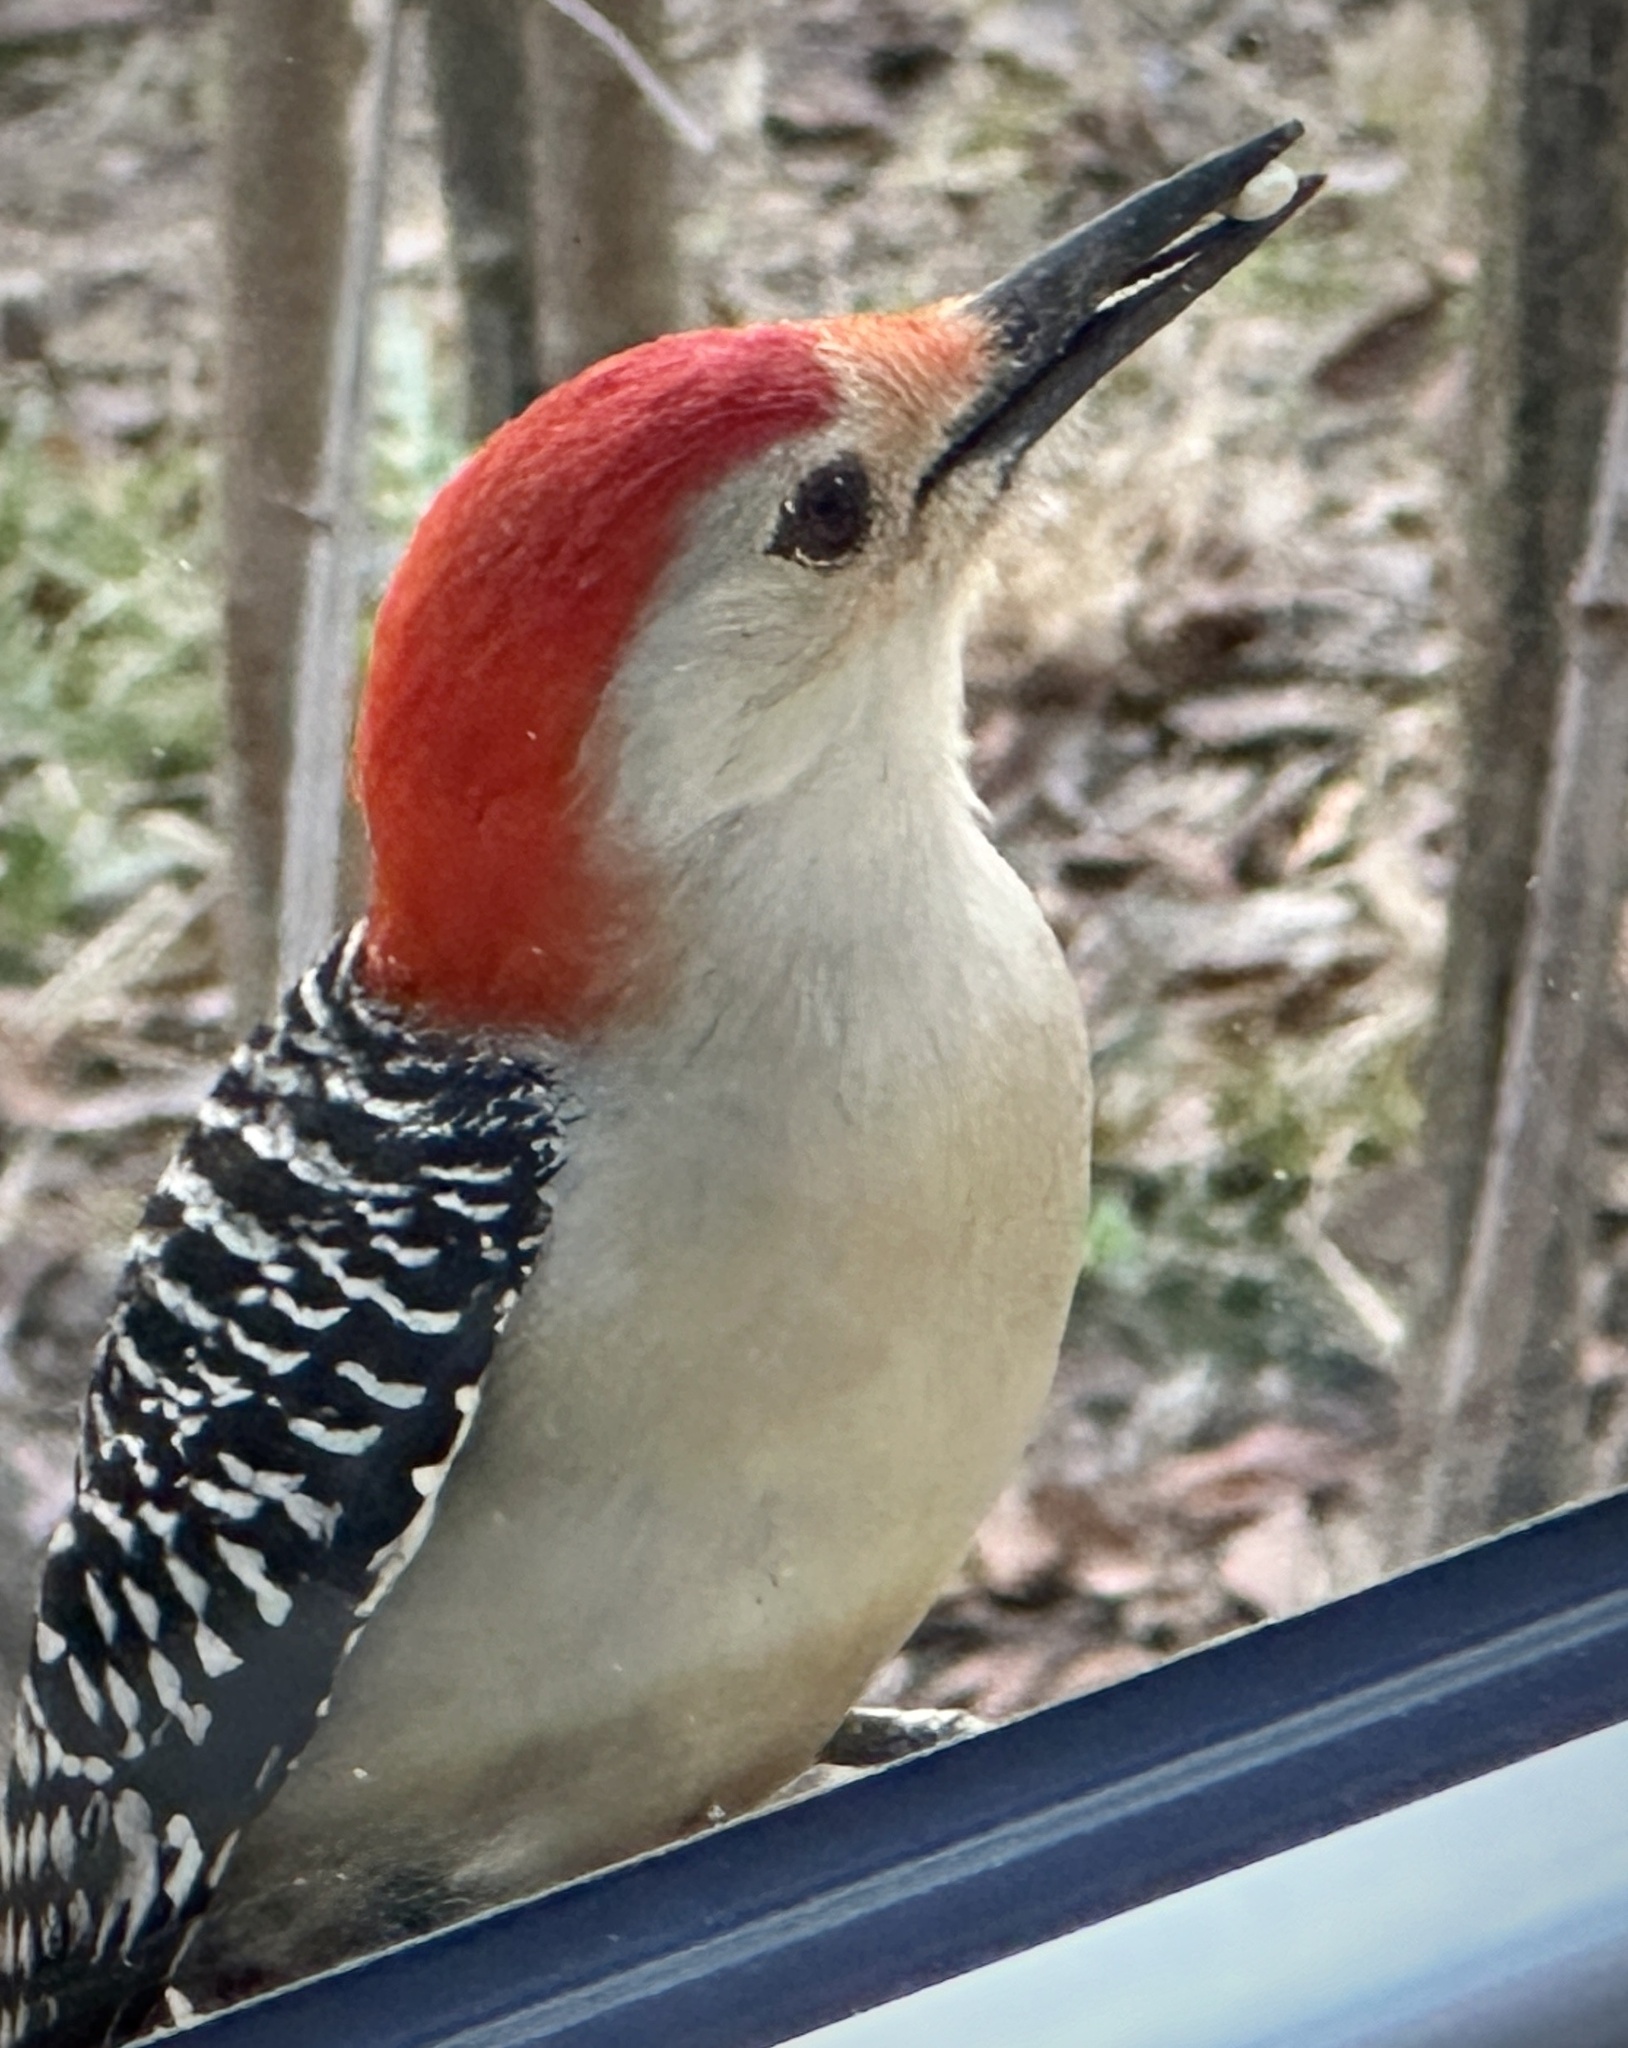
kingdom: Animalia
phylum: Chordata
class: Aves
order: Piciformes
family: Picidae
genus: Melanerpes
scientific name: Melanerpes carolinus
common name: Red-bellied woodpecker
